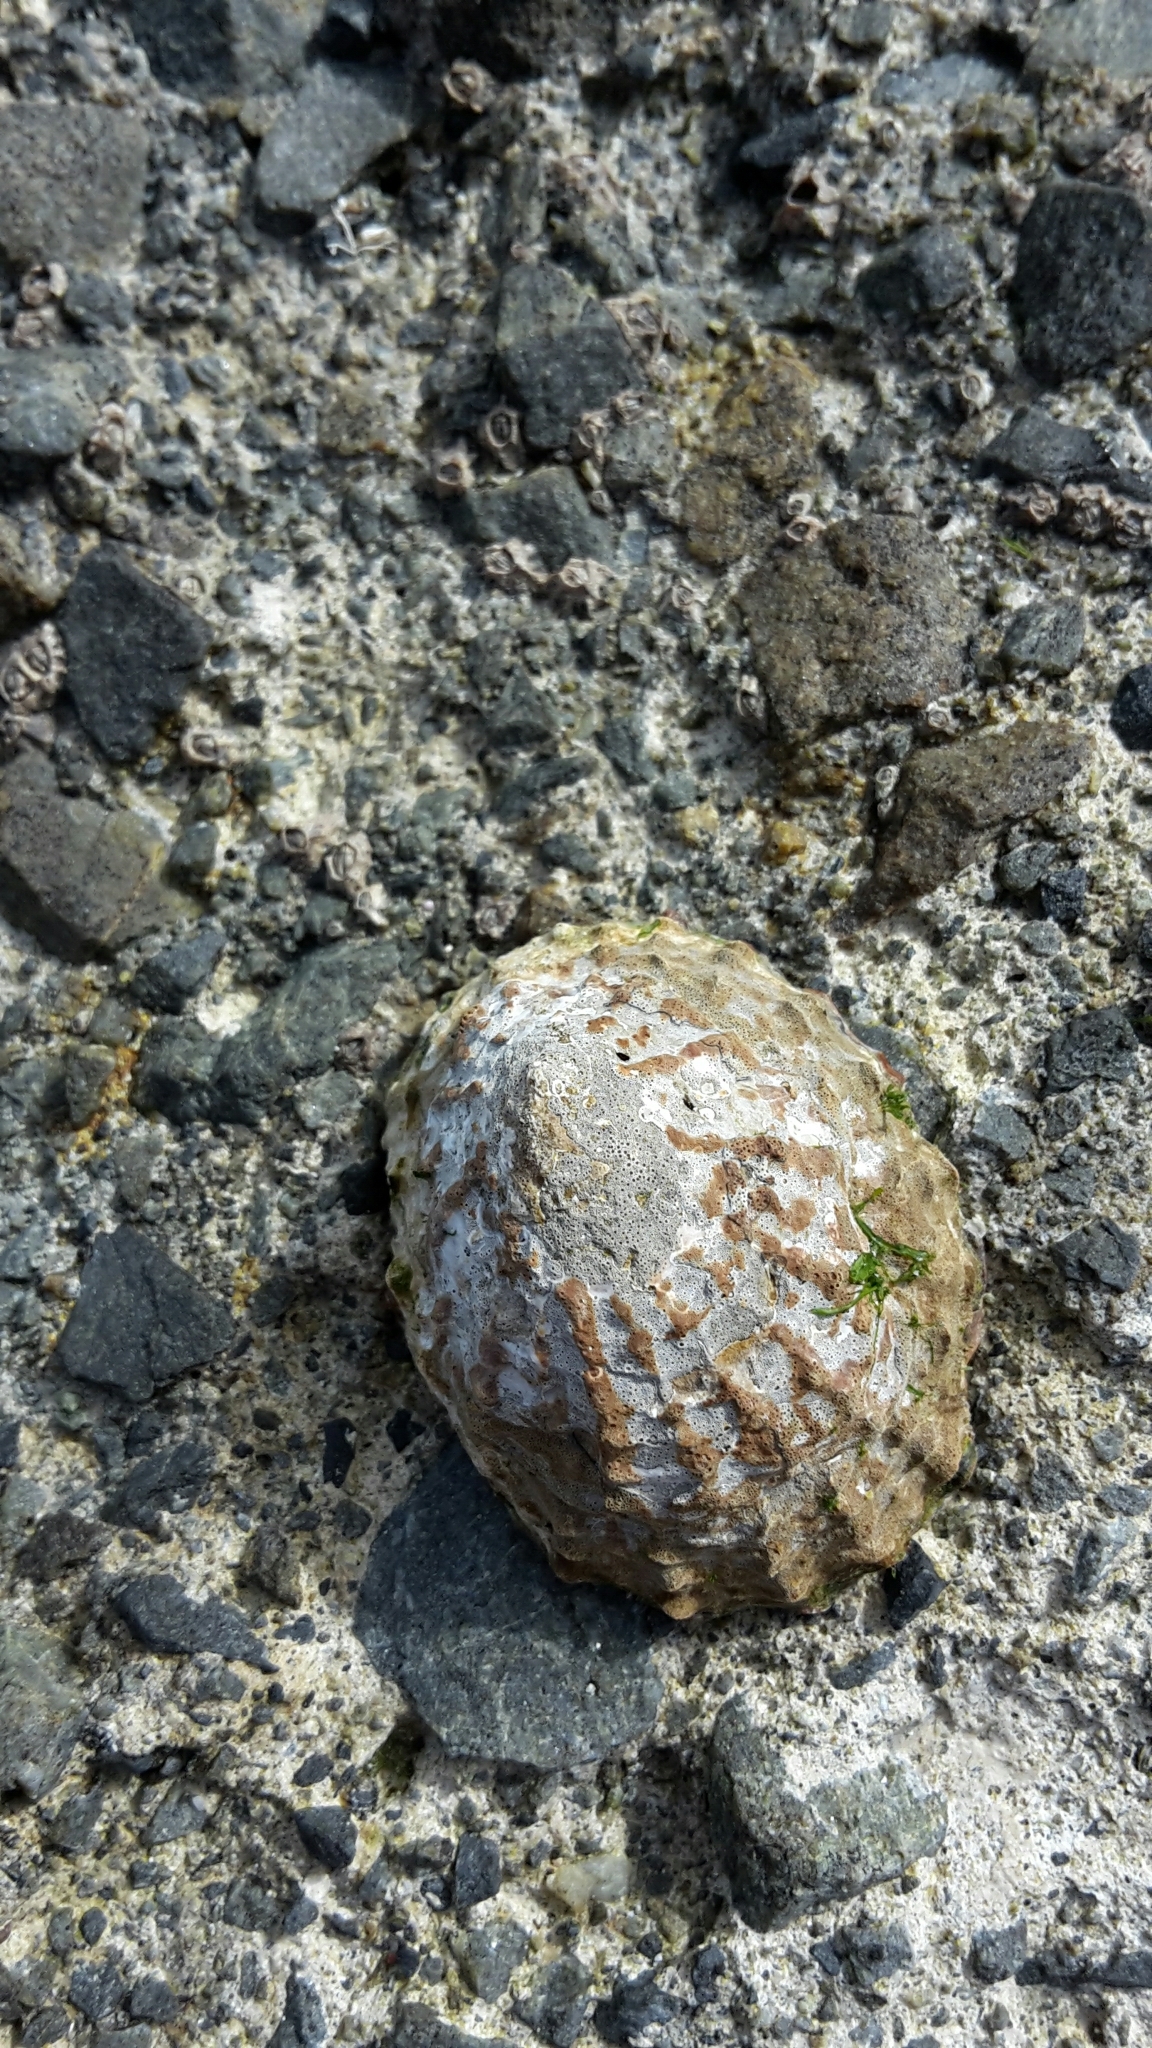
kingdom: Animalia
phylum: Mollusca
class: Gastropoda
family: Nacellidae
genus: Cellana
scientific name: Cellana denticulata
